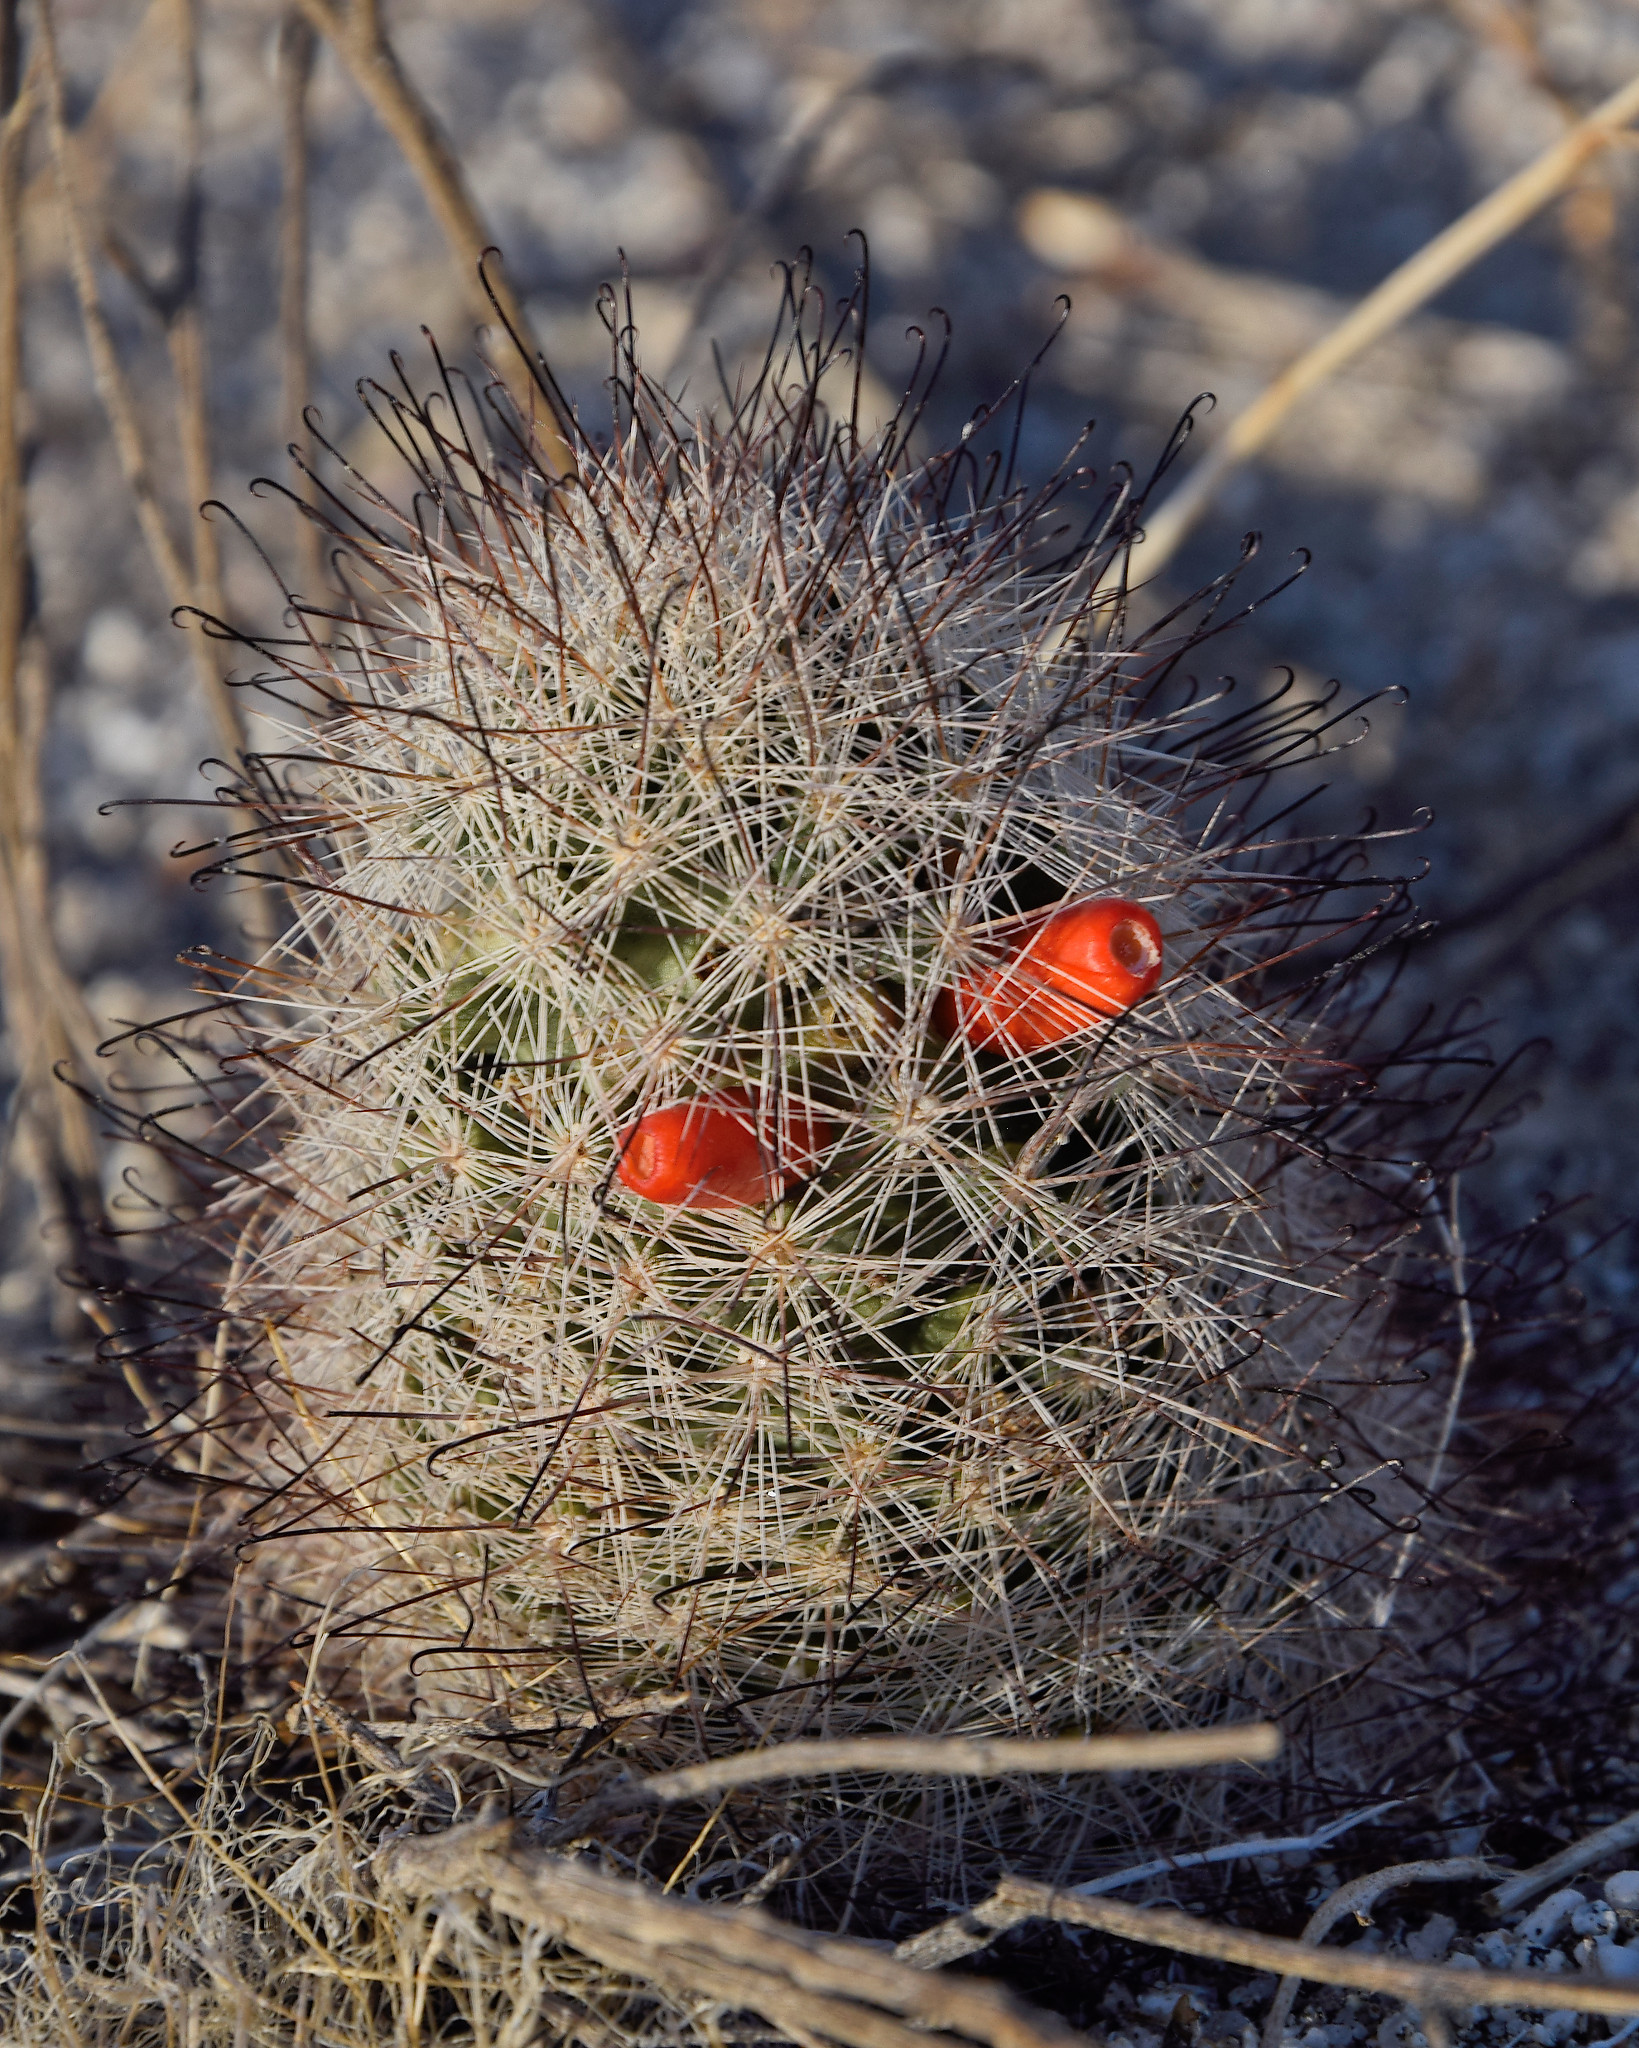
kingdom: Plantae
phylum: Tracheophyta
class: Magnoliopsida
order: Caryophyllales
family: Cactaceae
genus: Cochemiea
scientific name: Cochemiea tetrancistra
